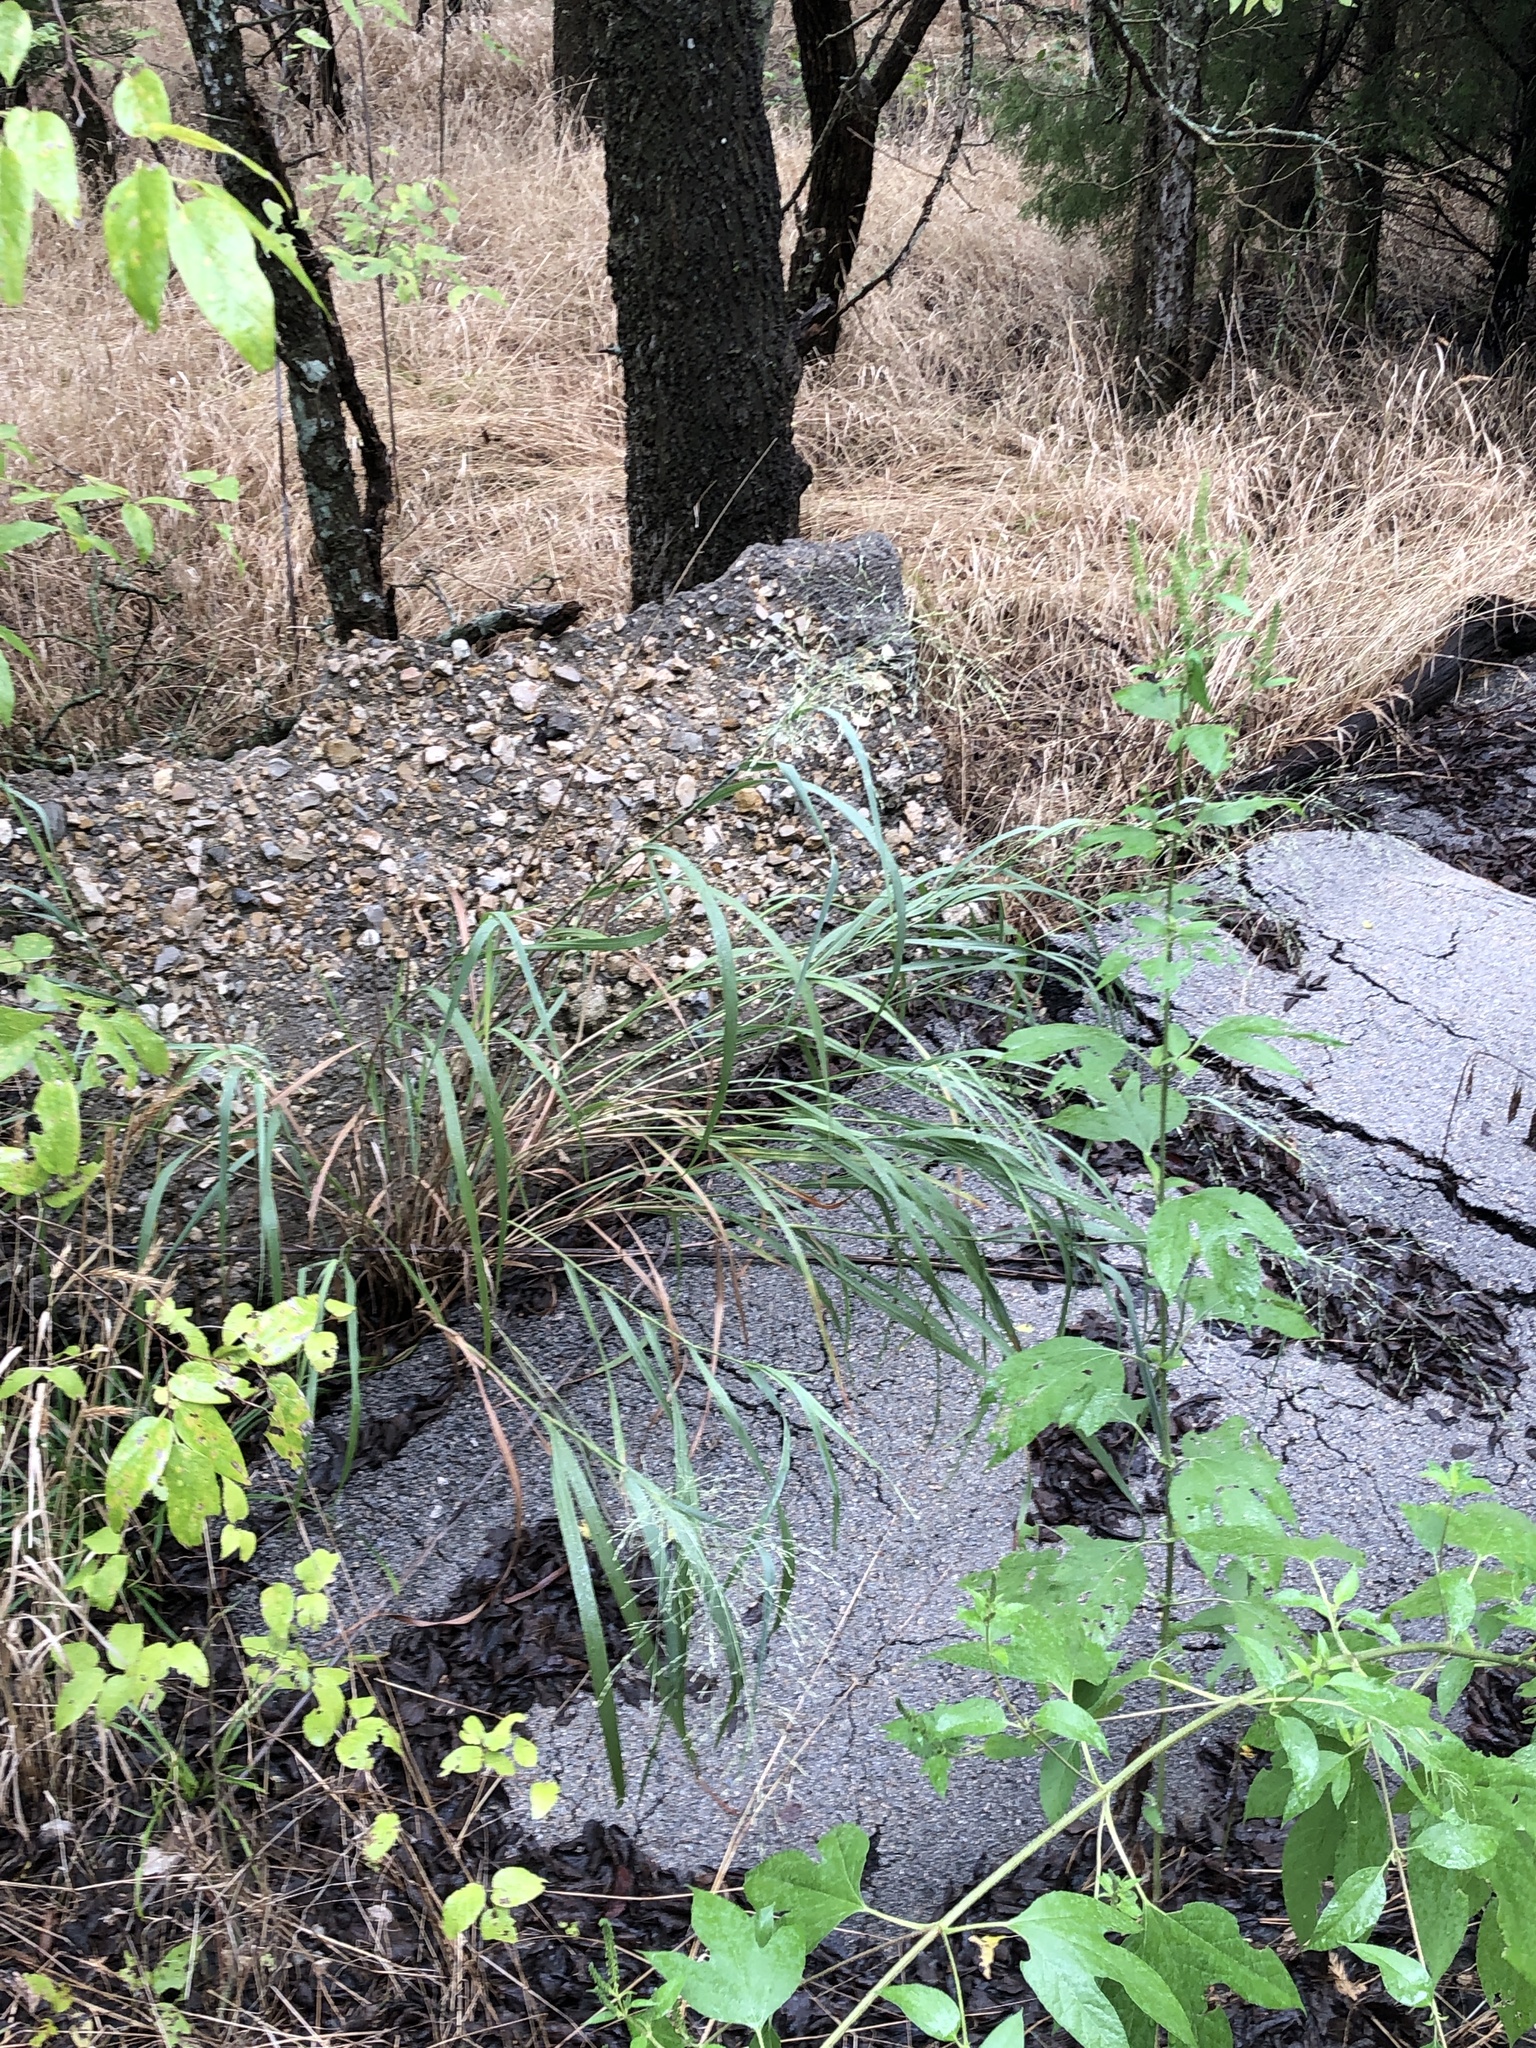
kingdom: Plantae
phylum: Tracheophyta
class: Liliopsida
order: Poales
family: Poaceae
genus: Panicum
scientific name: Panicum virgatum
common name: Switchgrass
